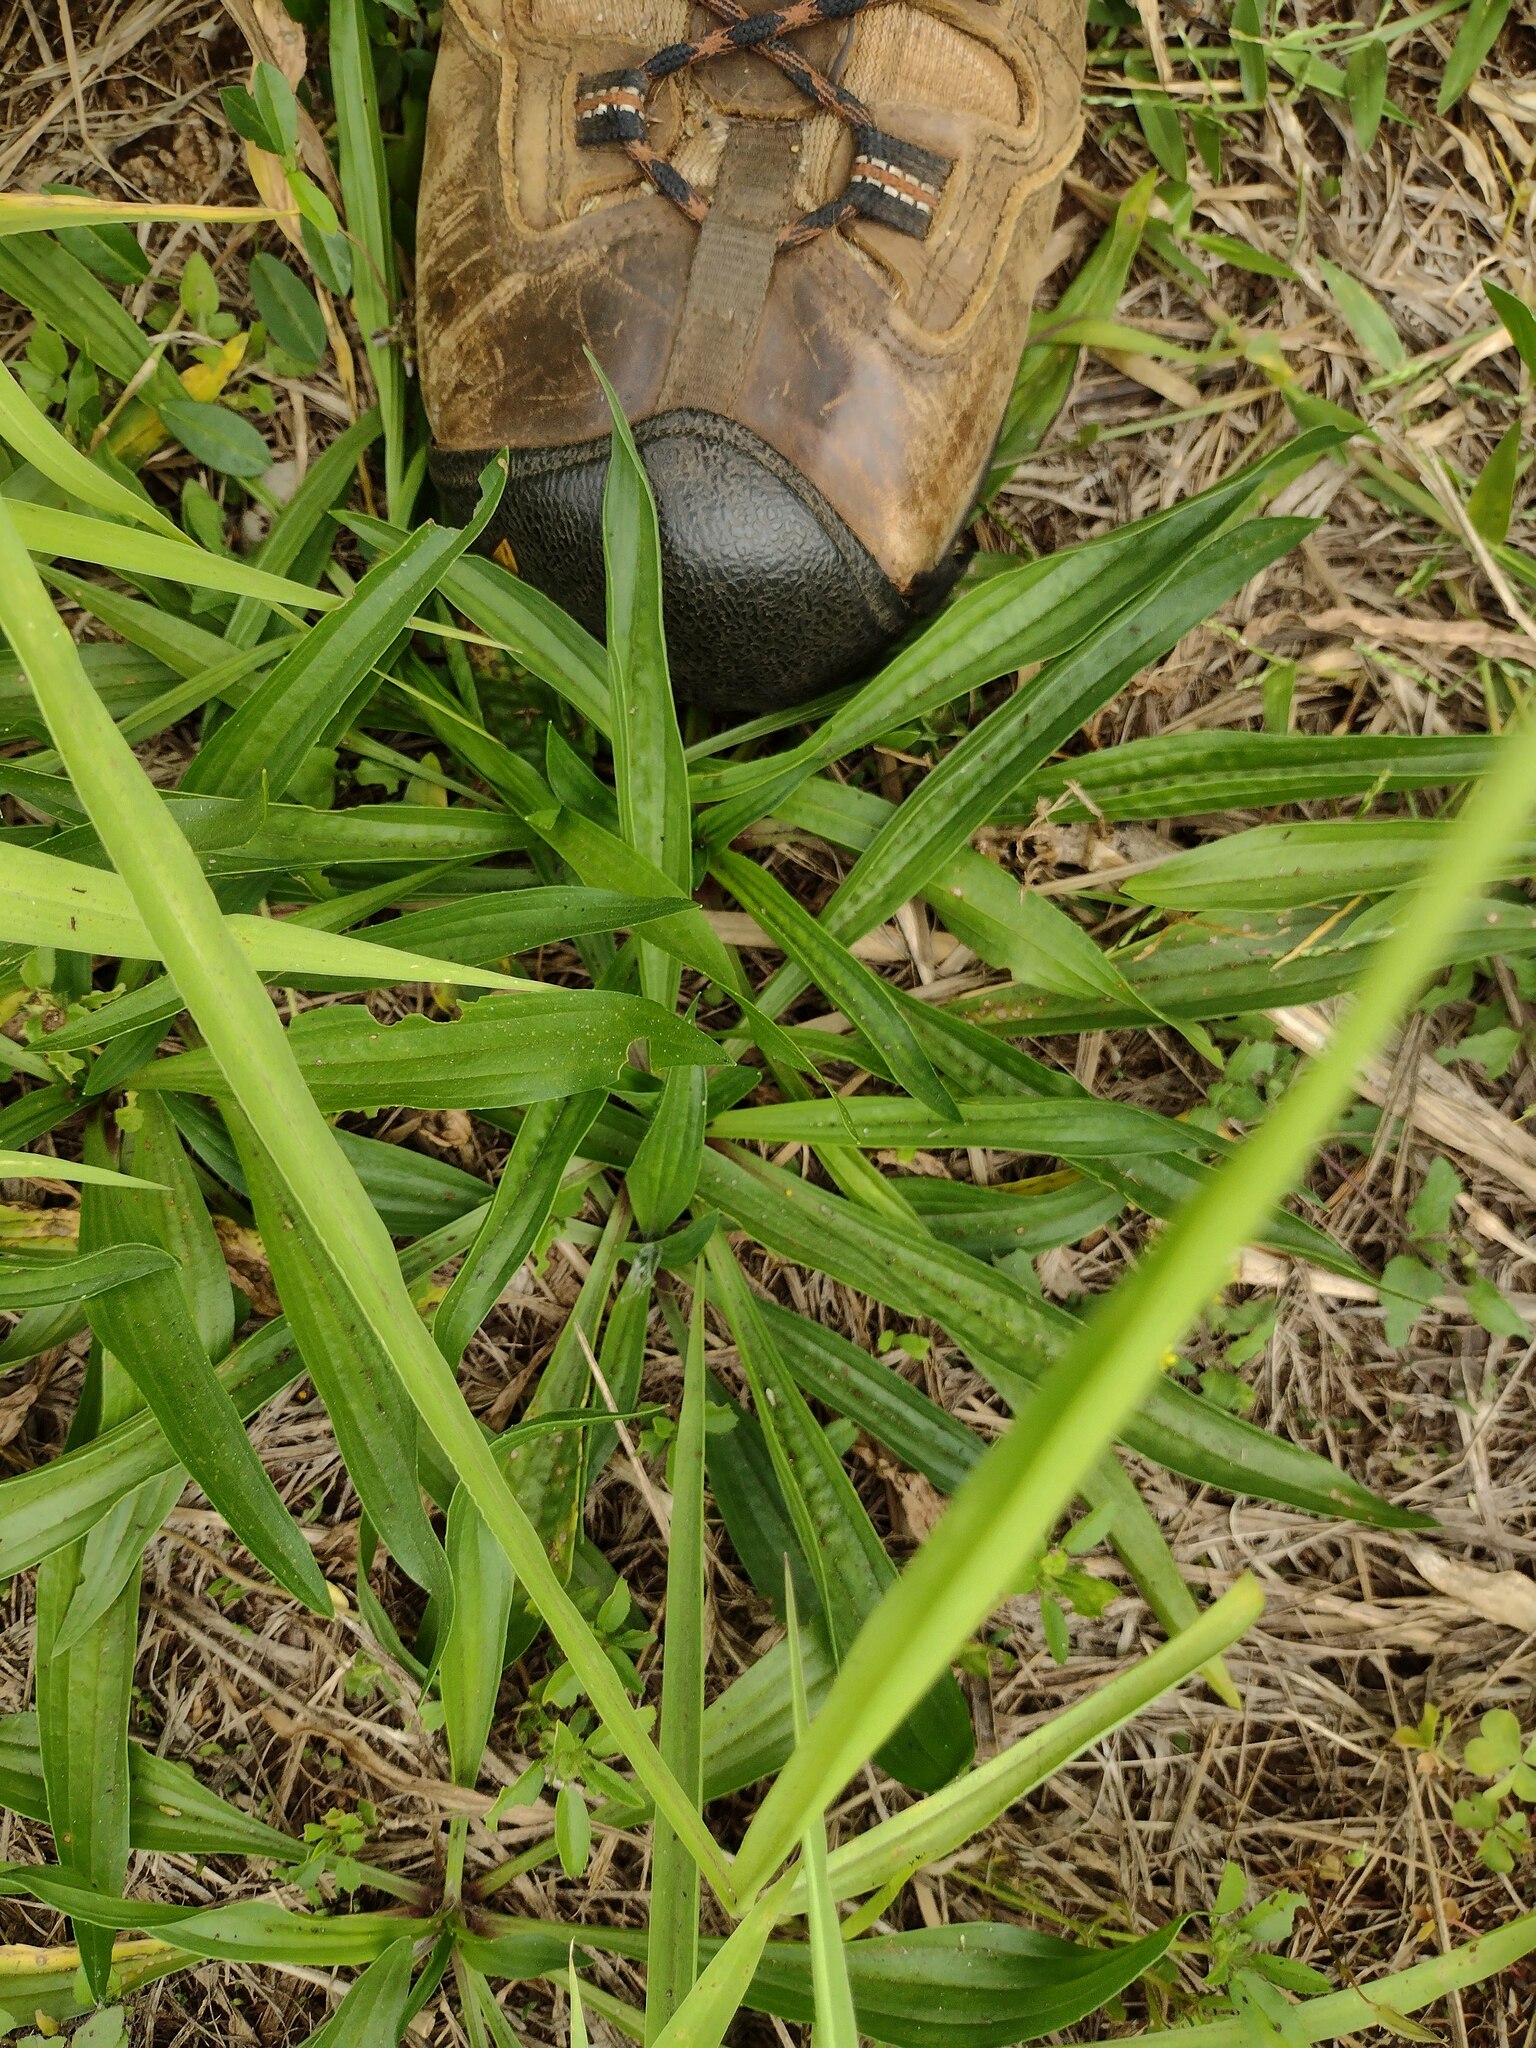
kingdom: Plantae
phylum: Tracheophyta
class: Magnoliopsida
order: Lamiales
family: Plantaginaceae
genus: Plantago
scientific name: Plantago lanceolata
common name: Ribwort plantain
